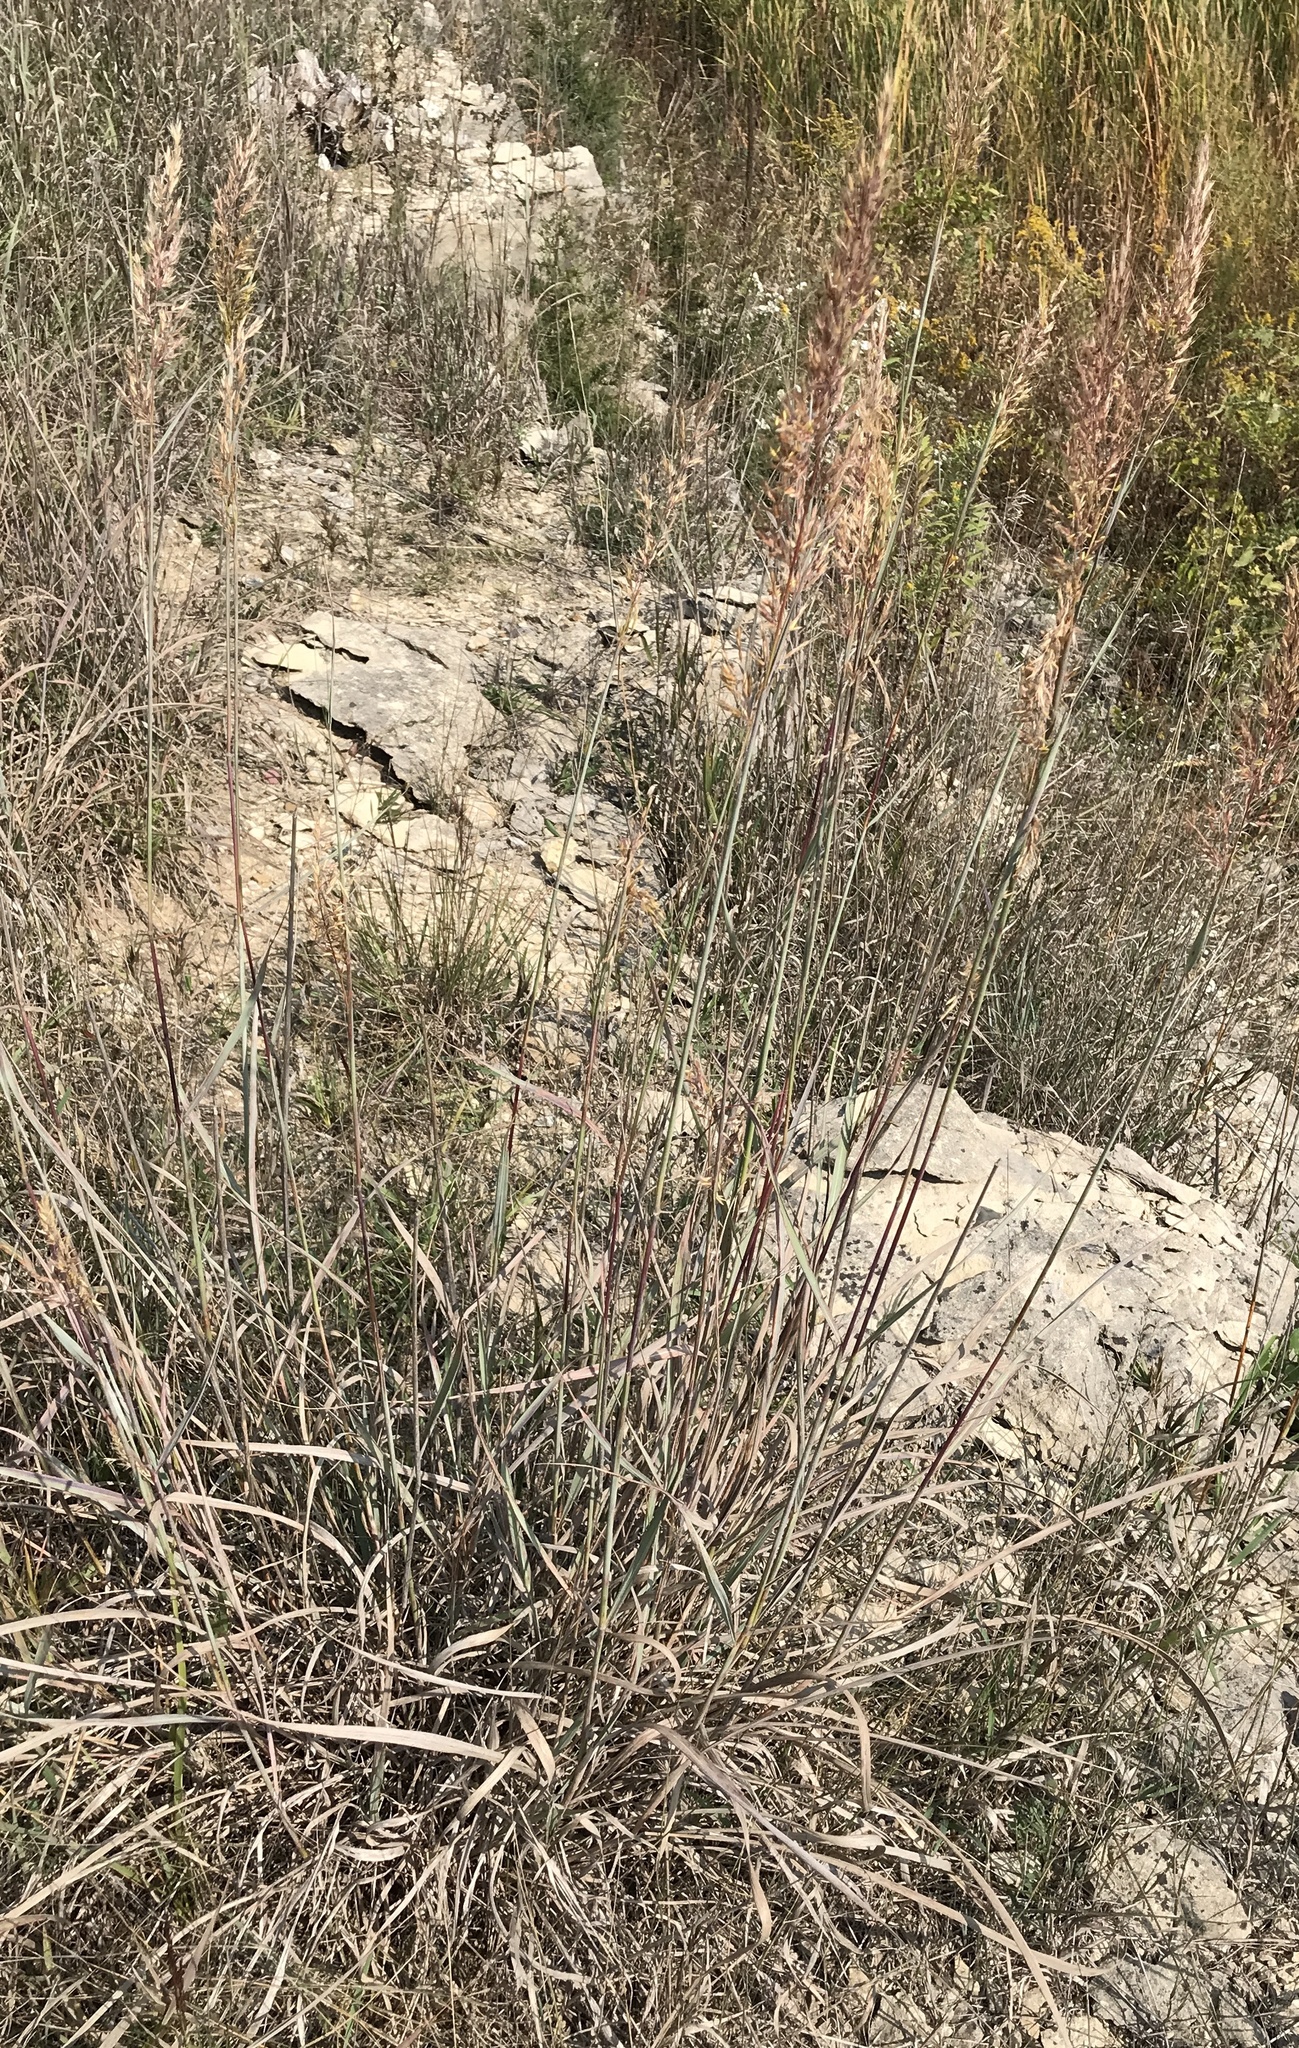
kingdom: Plantae
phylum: Tracheophyta
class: Liliopsida
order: Poales
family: Poaceae
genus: Sorghastrum
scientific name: Sorghastrum nutans
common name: Indian grass
